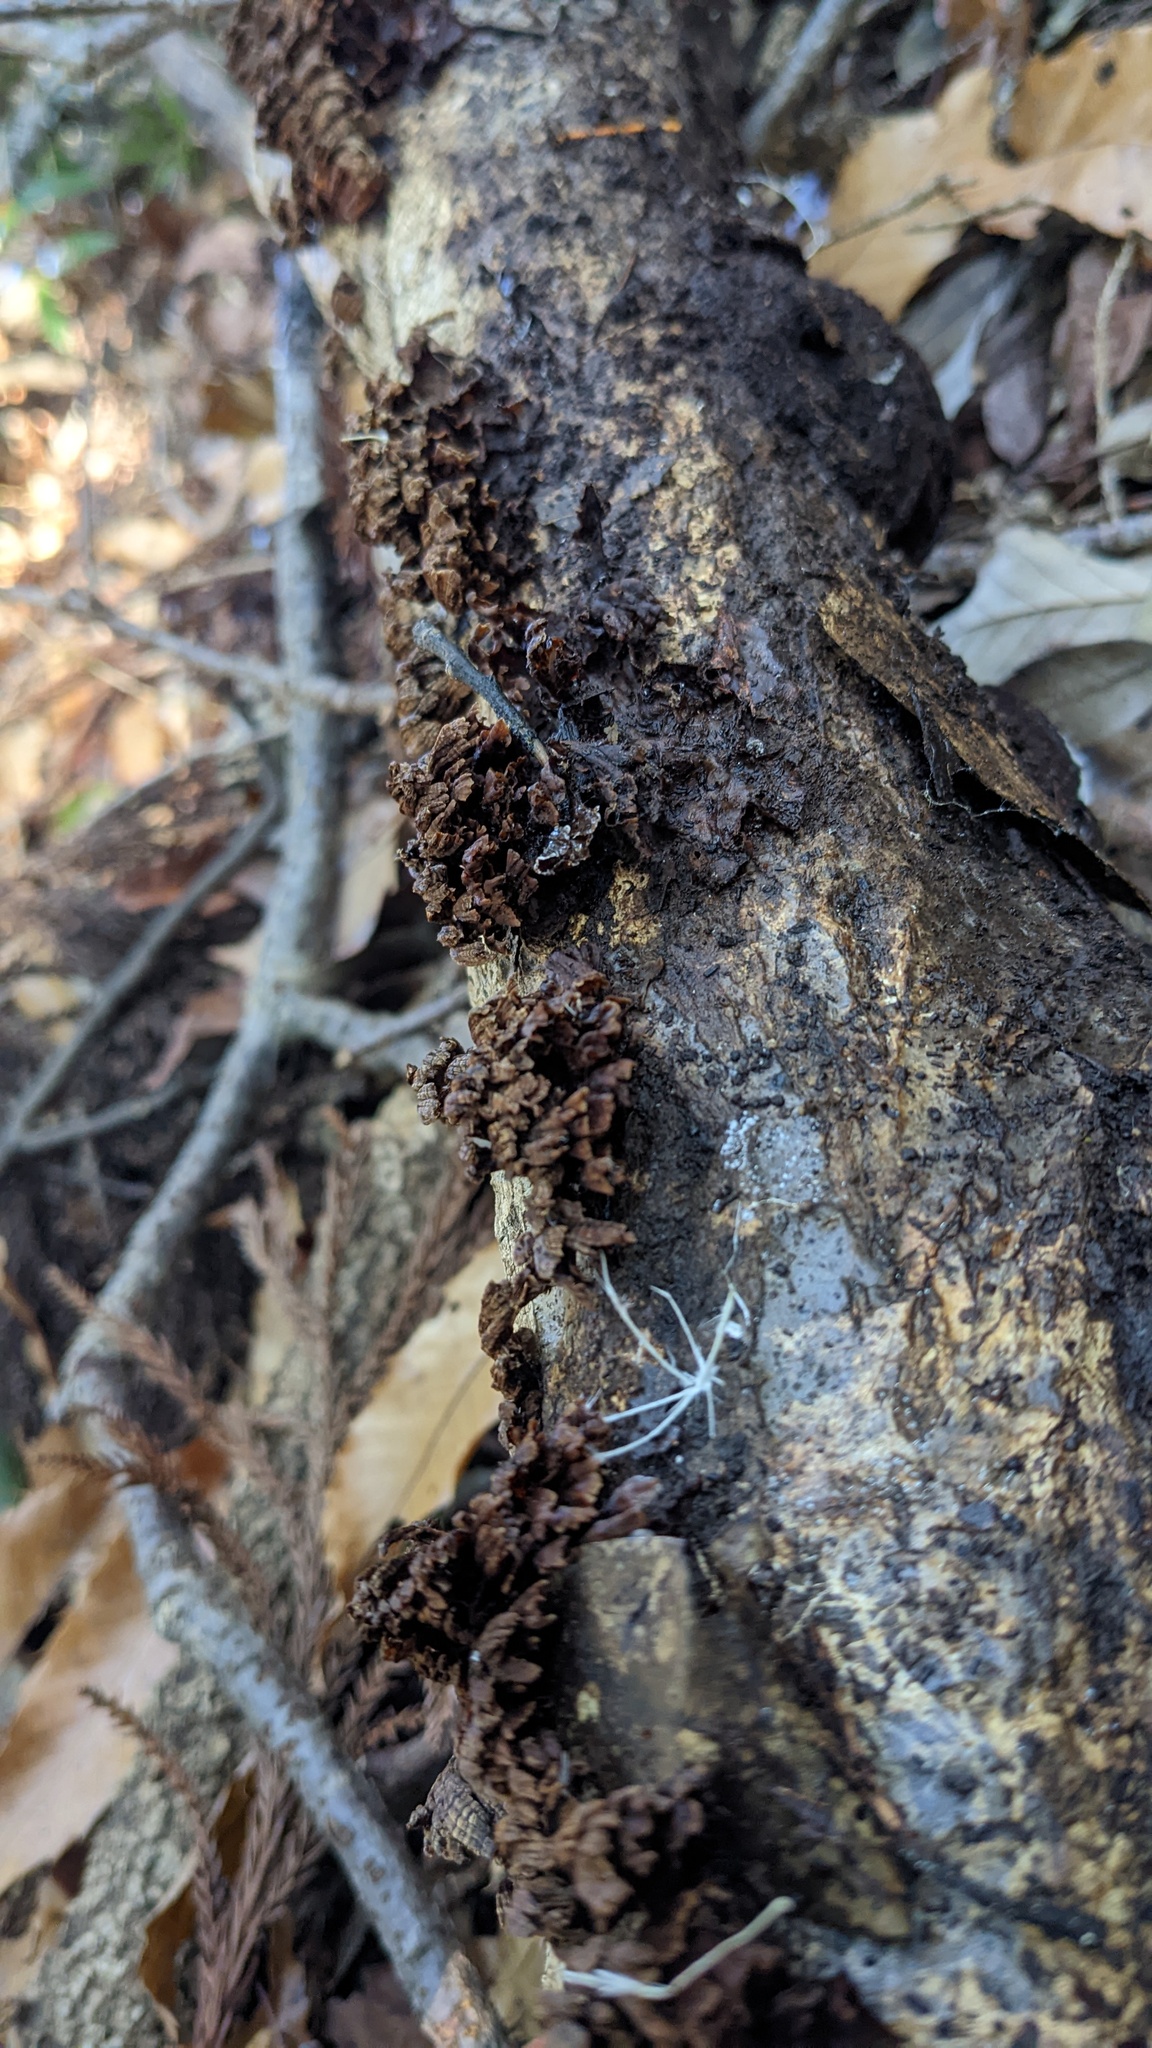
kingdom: Fungi
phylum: Basidiomycota
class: Agaricomycetes
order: Russulales
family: Stereaceae
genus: Xylobolus
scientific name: Xylobolus spectabilis
